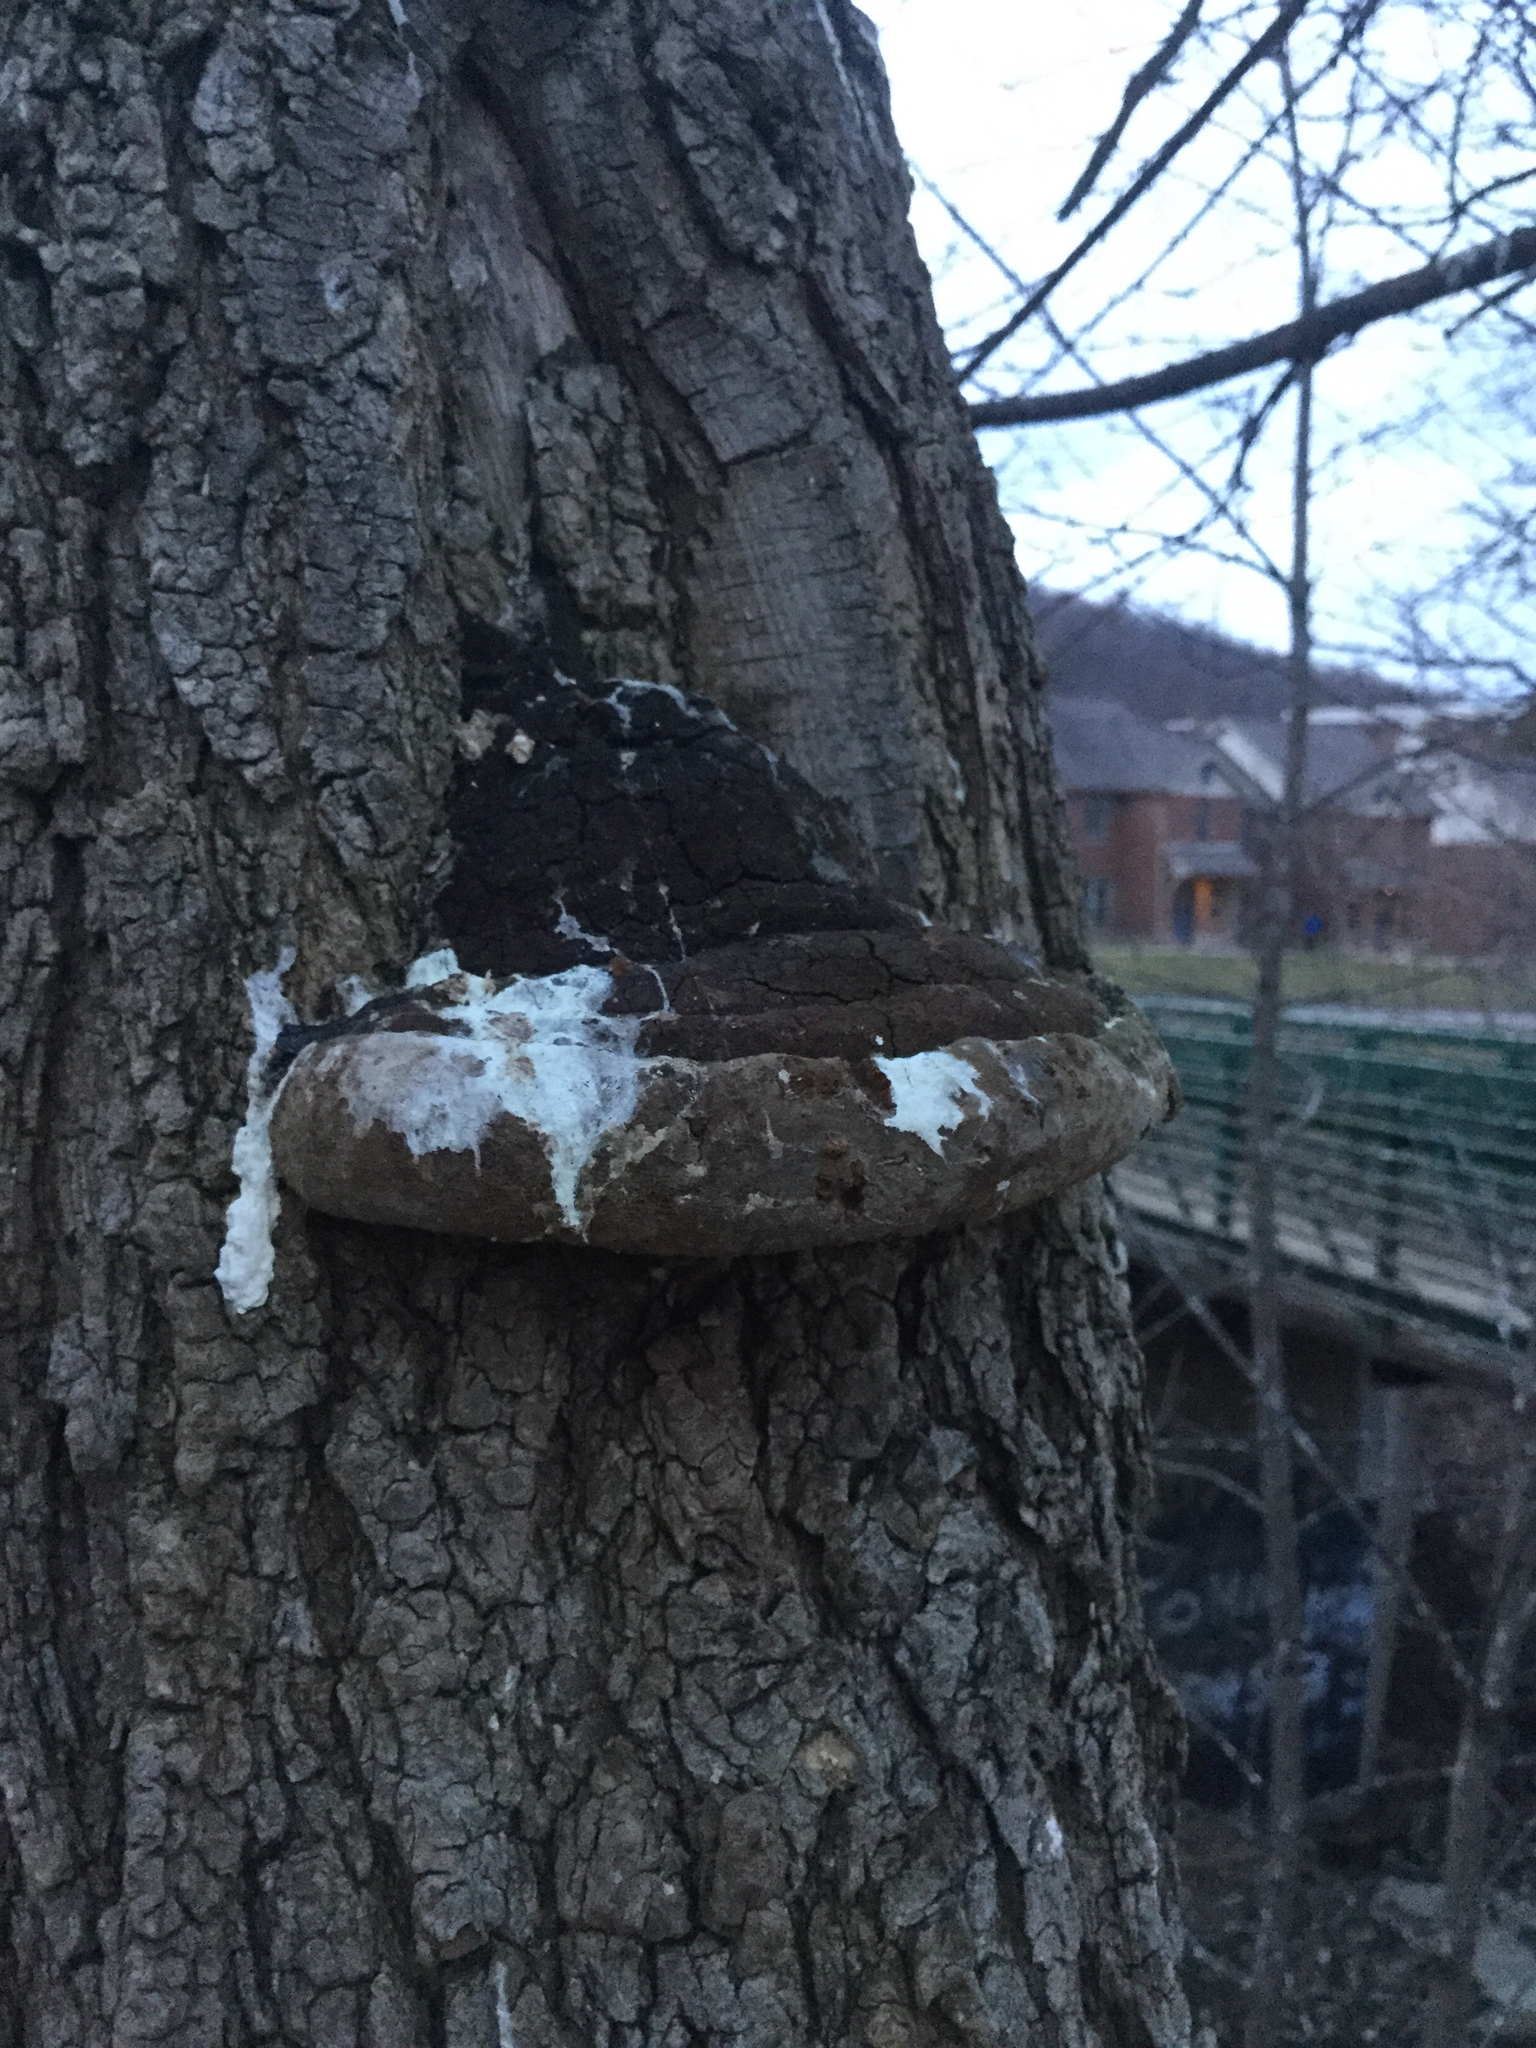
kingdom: Fungi
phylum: Basidiomycota
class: Agaricomycetes
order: Hymenochaetales
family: Hymenochaetaceae
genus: Phellinus
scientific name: Phellinus robiniae
